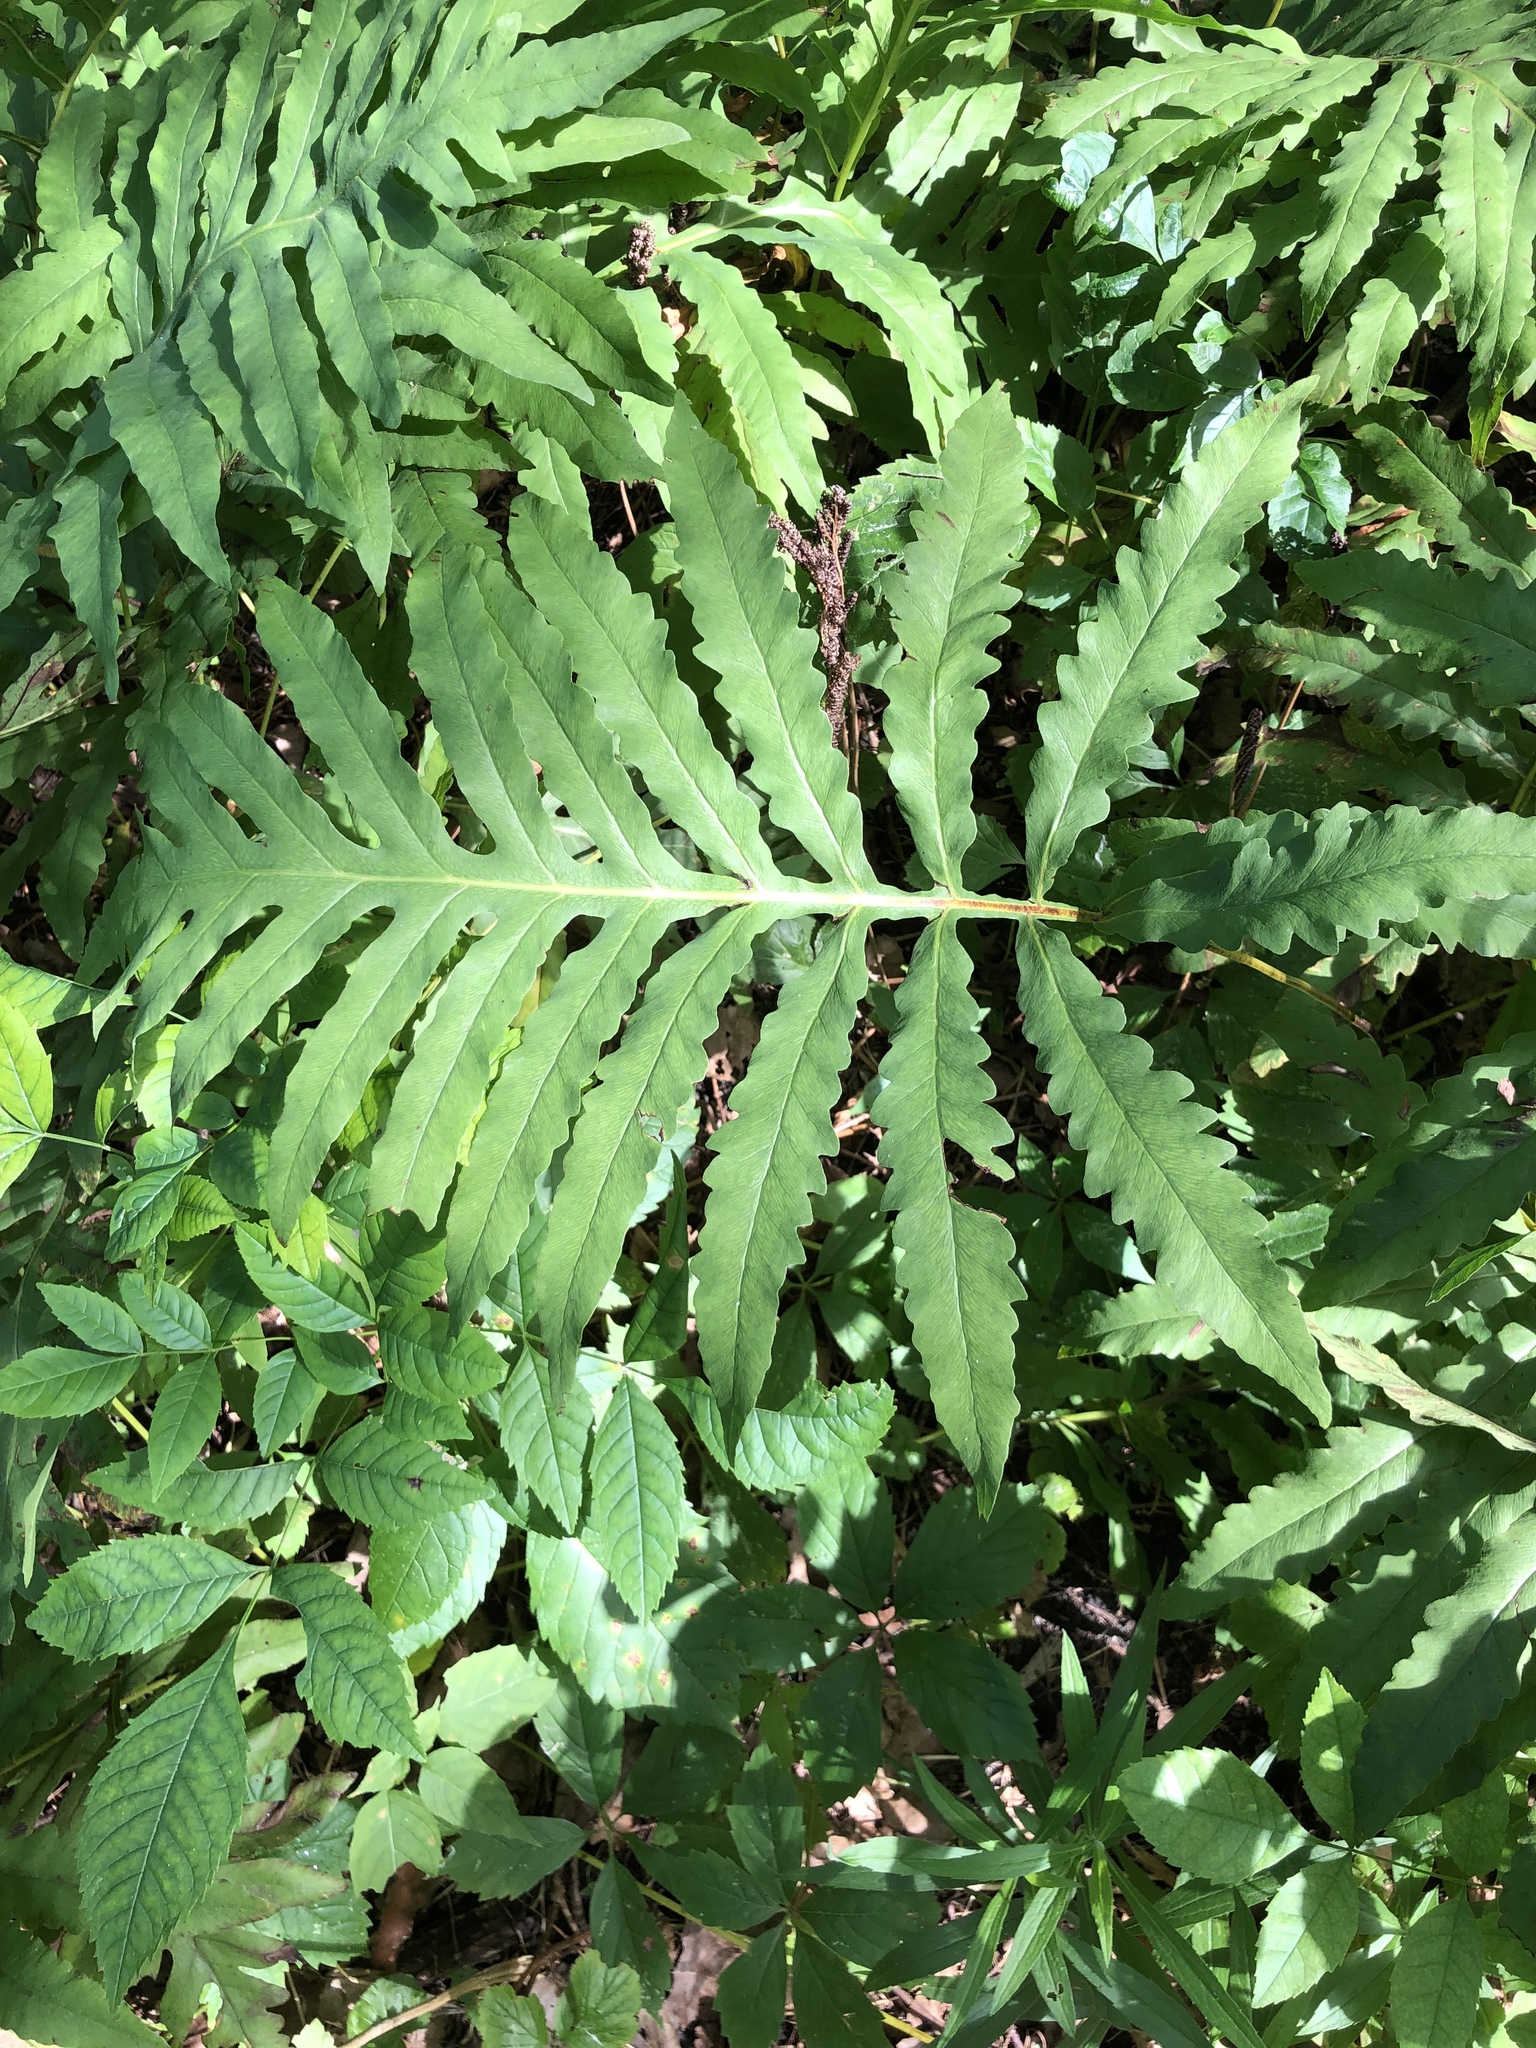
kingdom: Plantae
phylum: Tracheophyta
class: Polypodiopsida
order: Polypodiales
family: Onocleaceae
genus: Onoclea
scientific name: Onoclea sensibilis
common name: Sensitive fern
